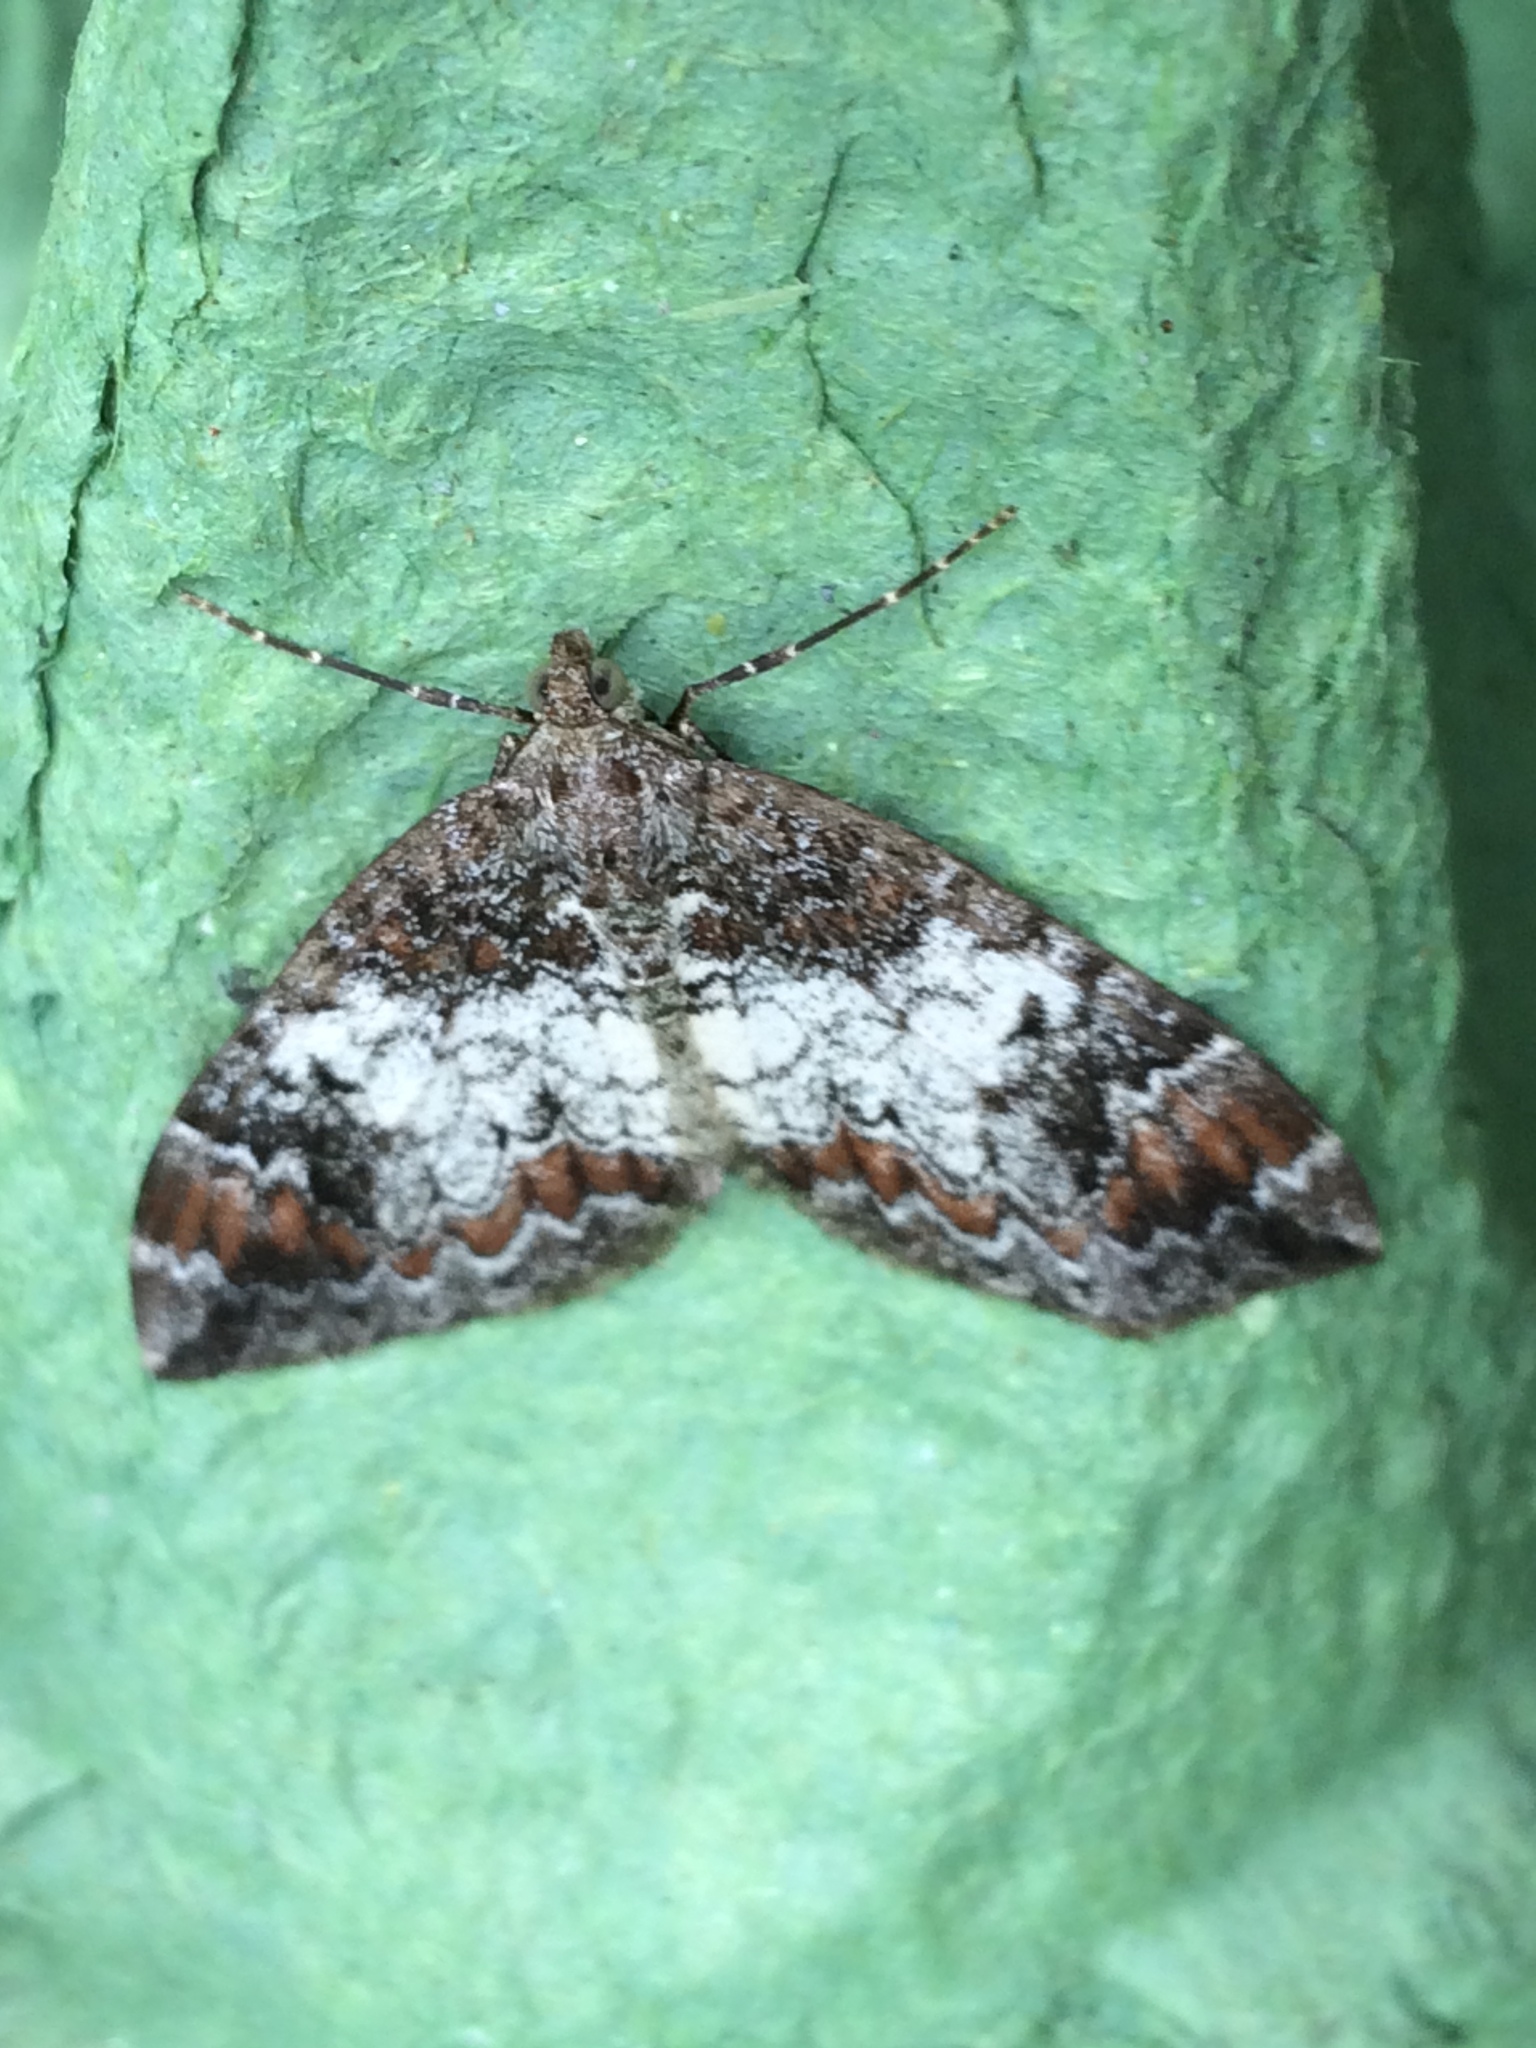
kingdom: Animalia
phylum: Arthropoda
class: Insecta
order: Lepidoptera
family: Geometridae
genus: Dysstroma
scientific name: Dysstroma truncata
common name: Common marbled carpet
